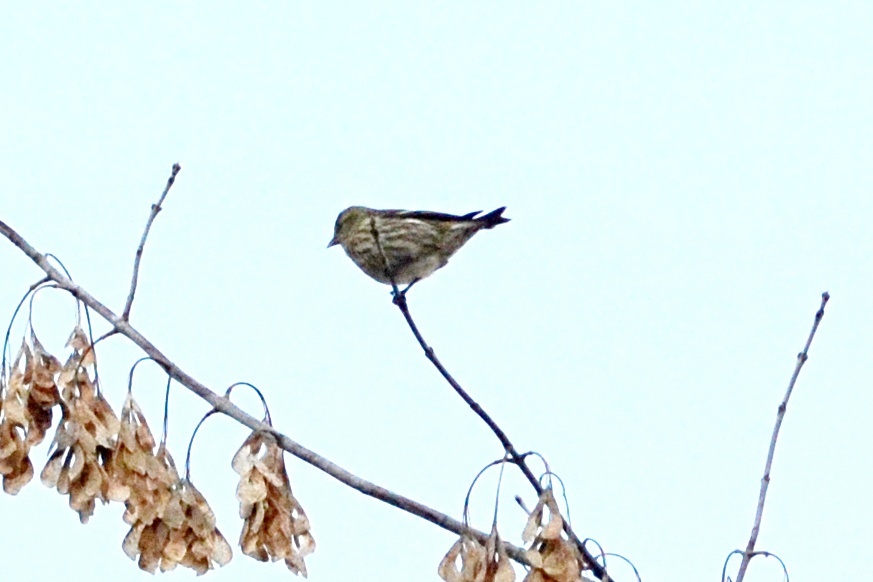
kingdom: Animalia
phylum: Chordata
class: Aves
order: Passeriformes
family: Fringillidae
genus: Spinus
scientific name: Spinus spinus
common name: Eurasian siskin
